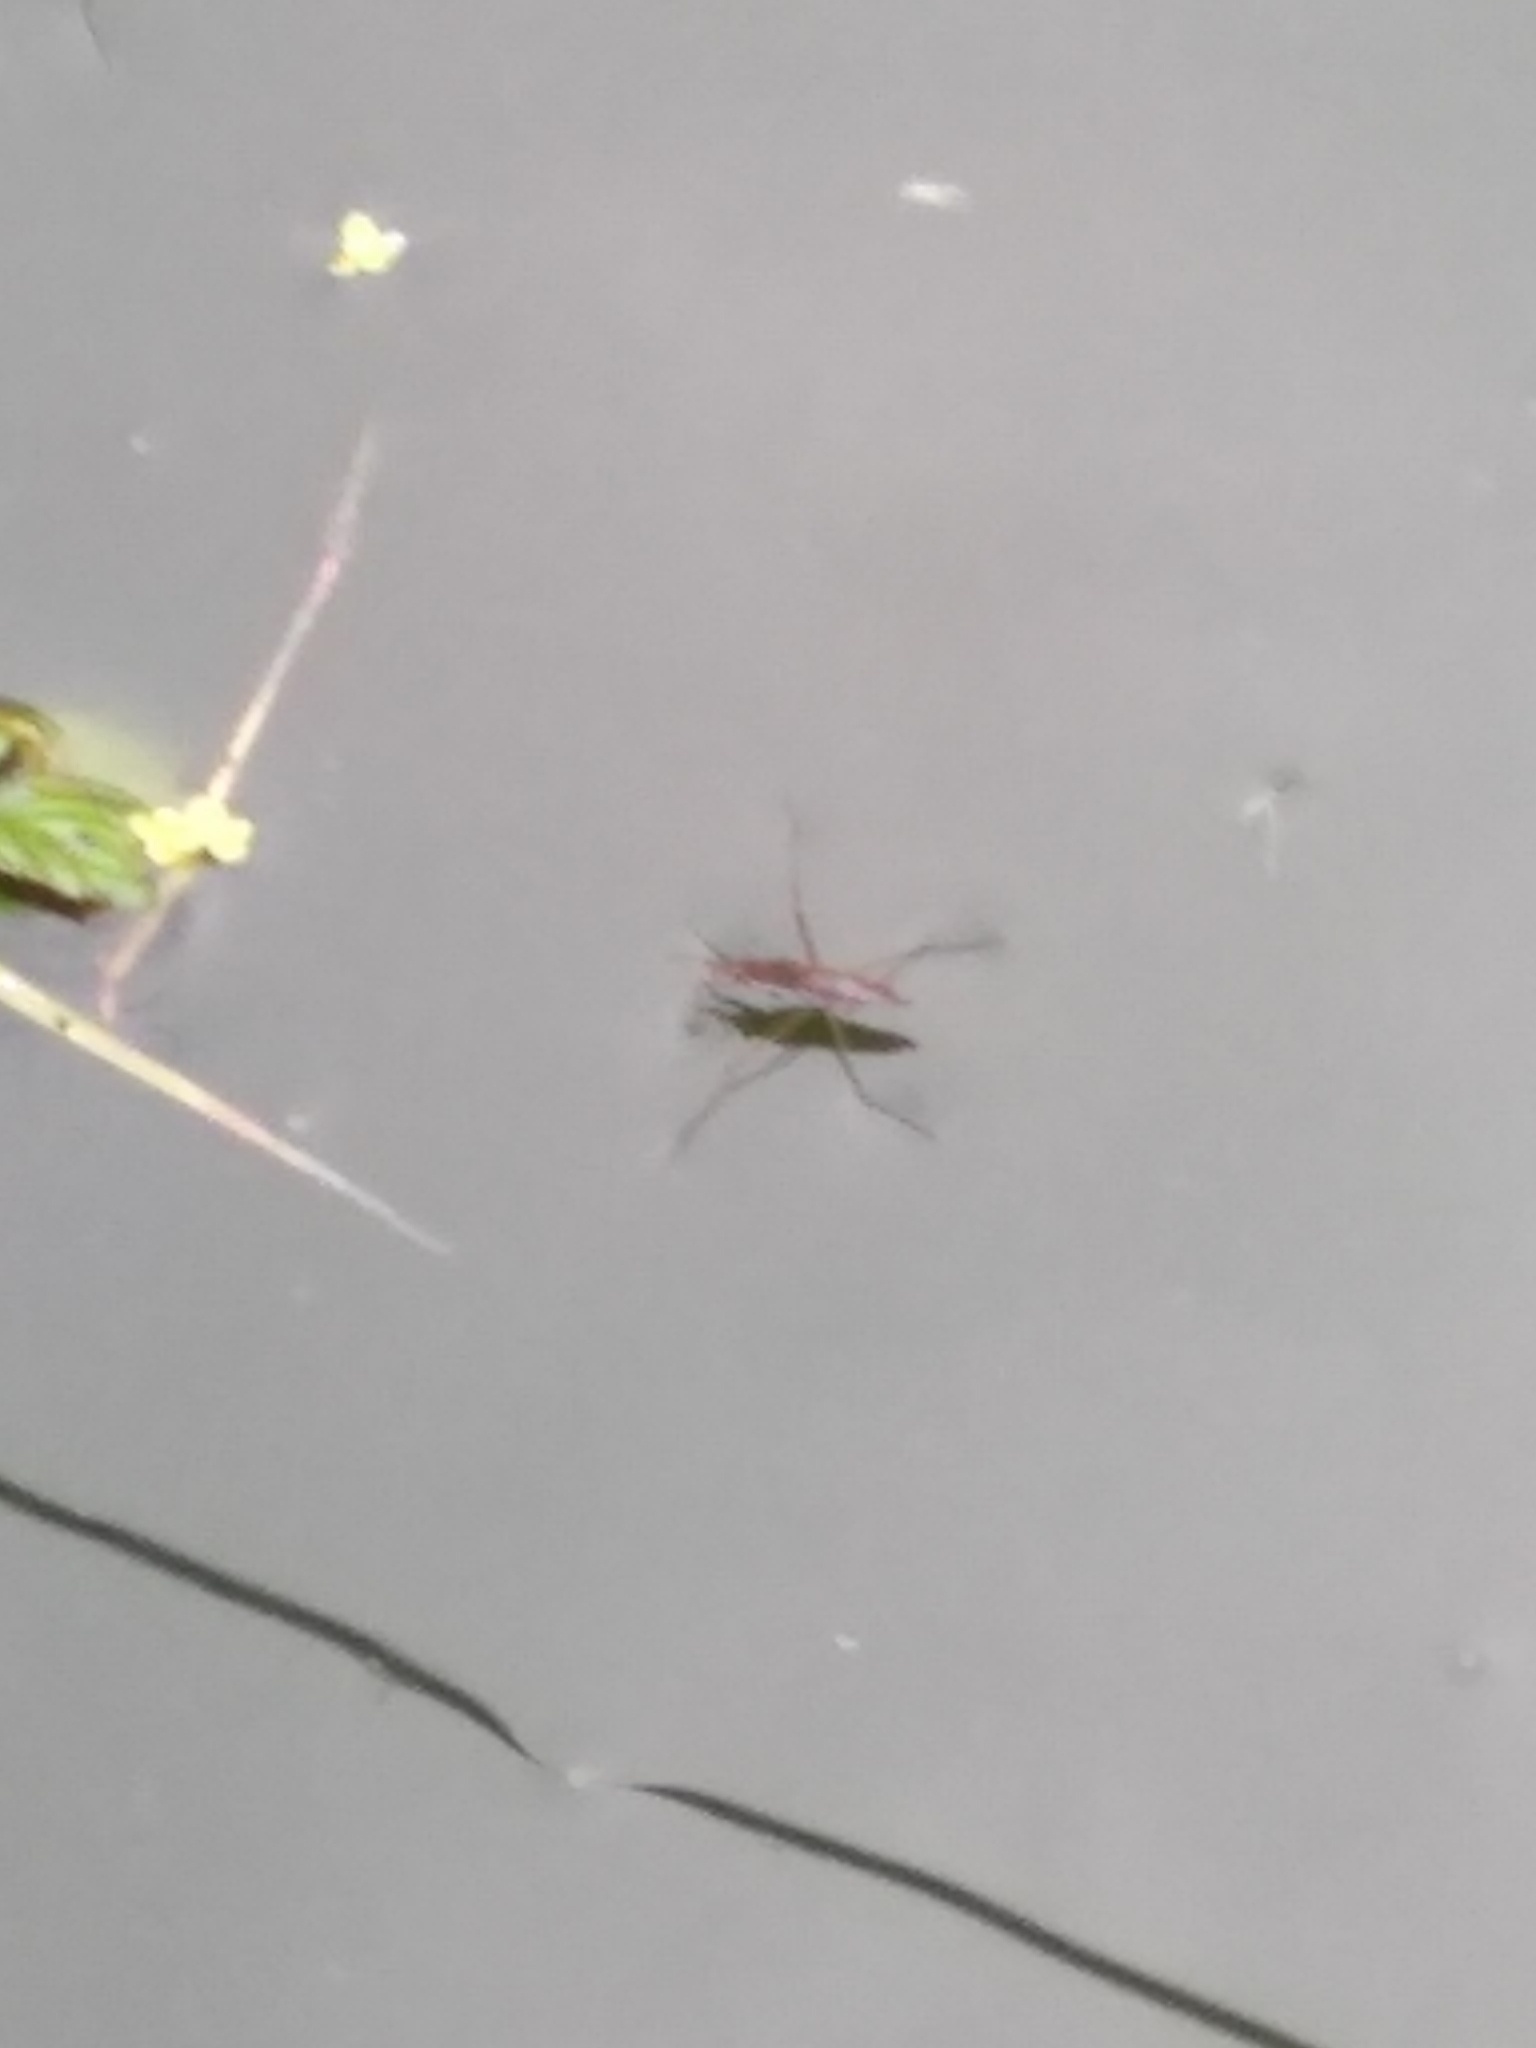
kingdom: Animalia
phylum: Arthropoda
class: Insecta
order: Hemiptera
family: Gerridae
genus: Gerris
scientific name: Gerris
